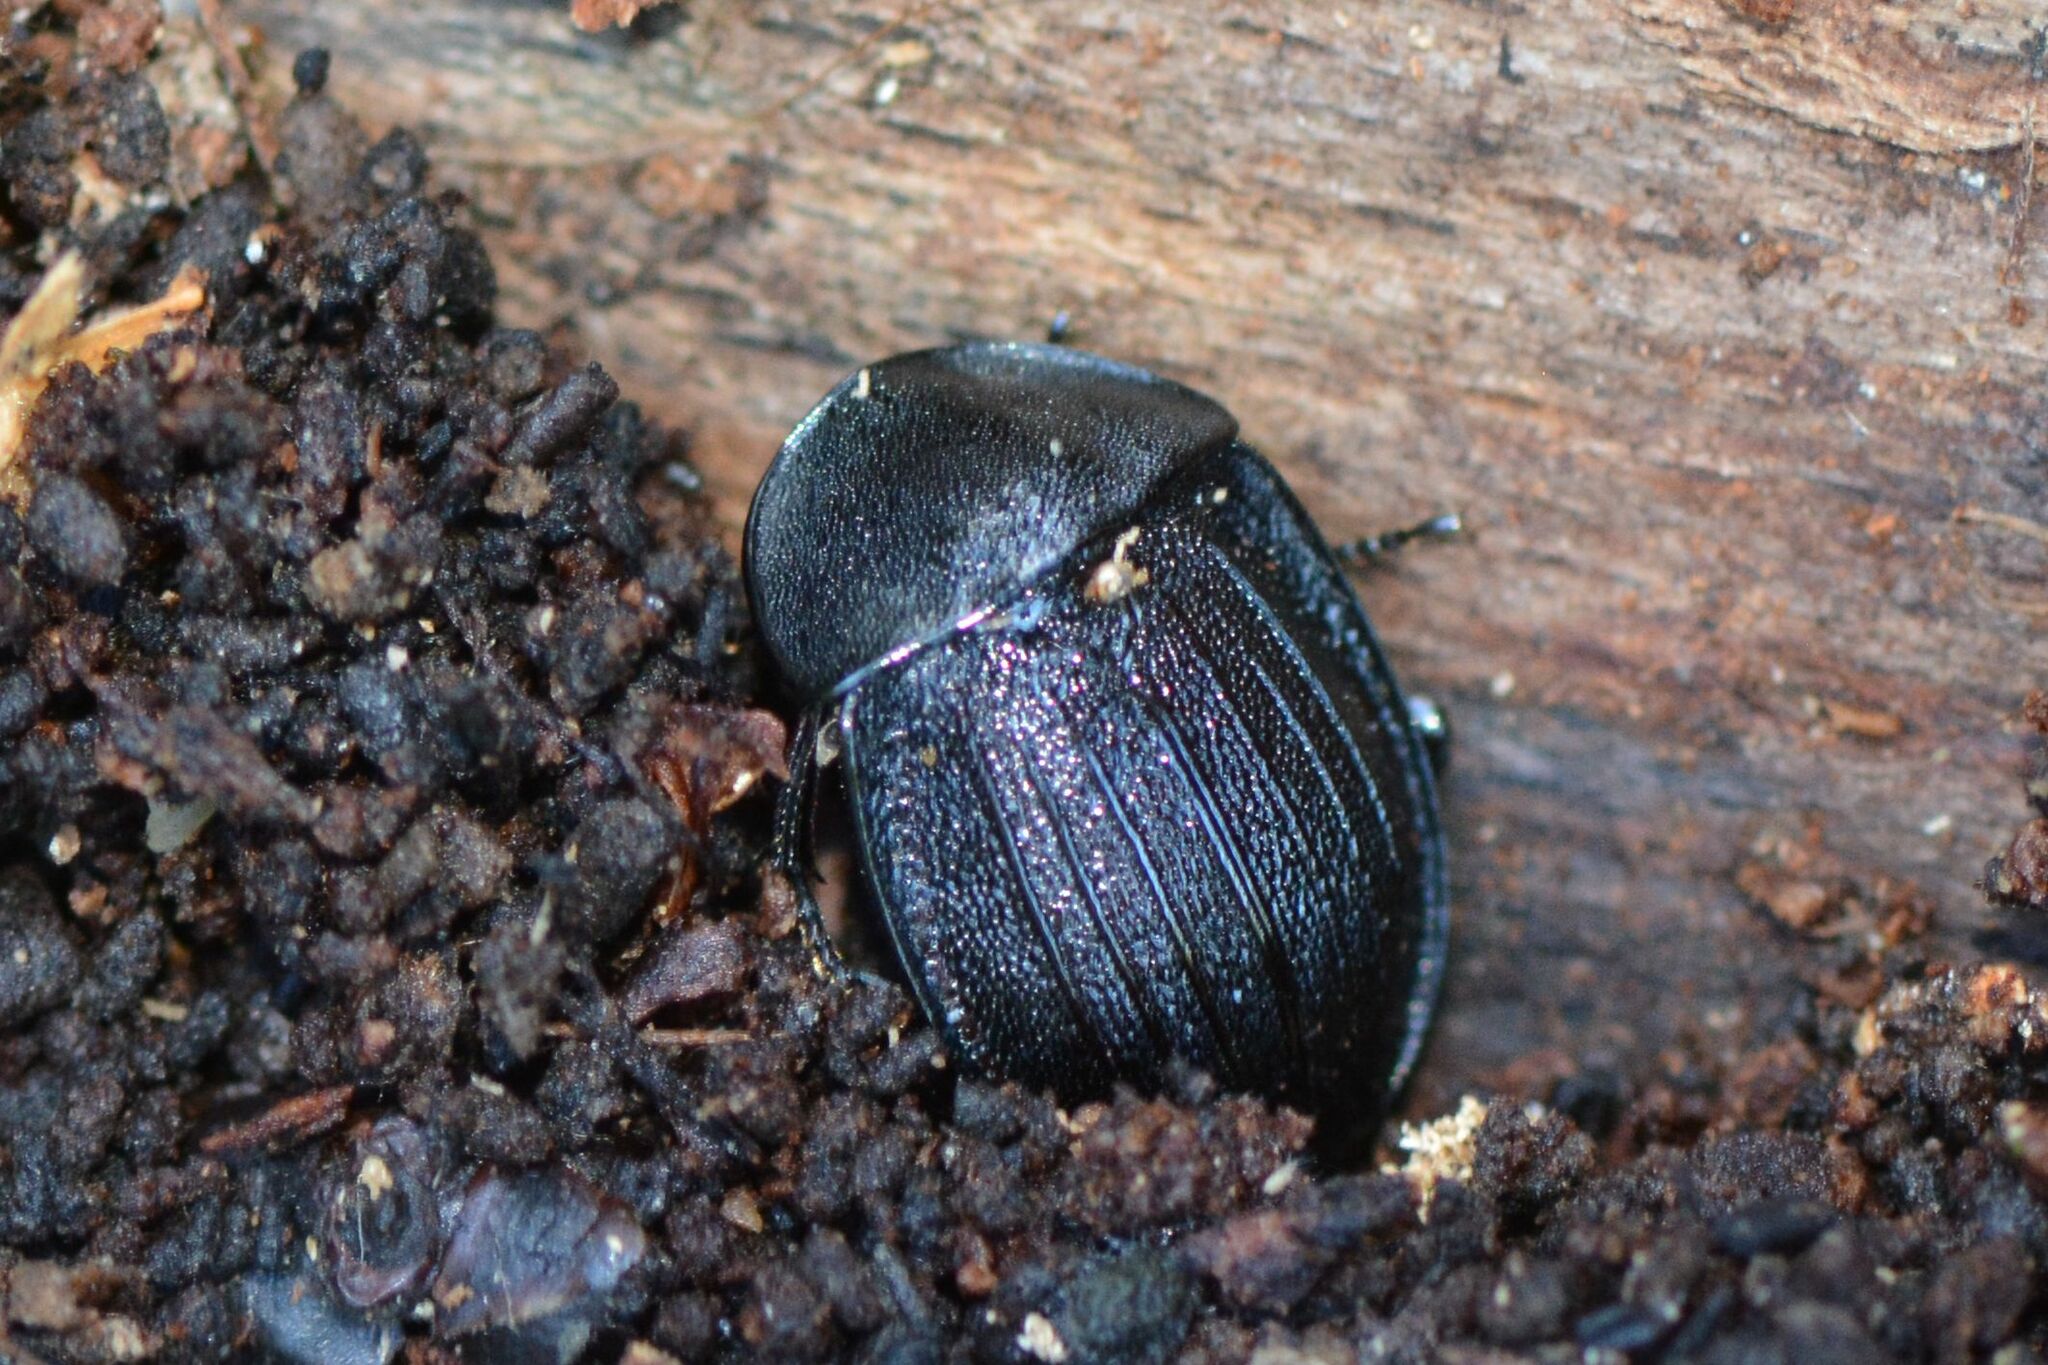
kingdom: Animalia
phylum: Arthropoda
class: Insecta
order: Coleoptera
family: Staphylinidae
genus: Silpha
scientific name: Silpha atrata
